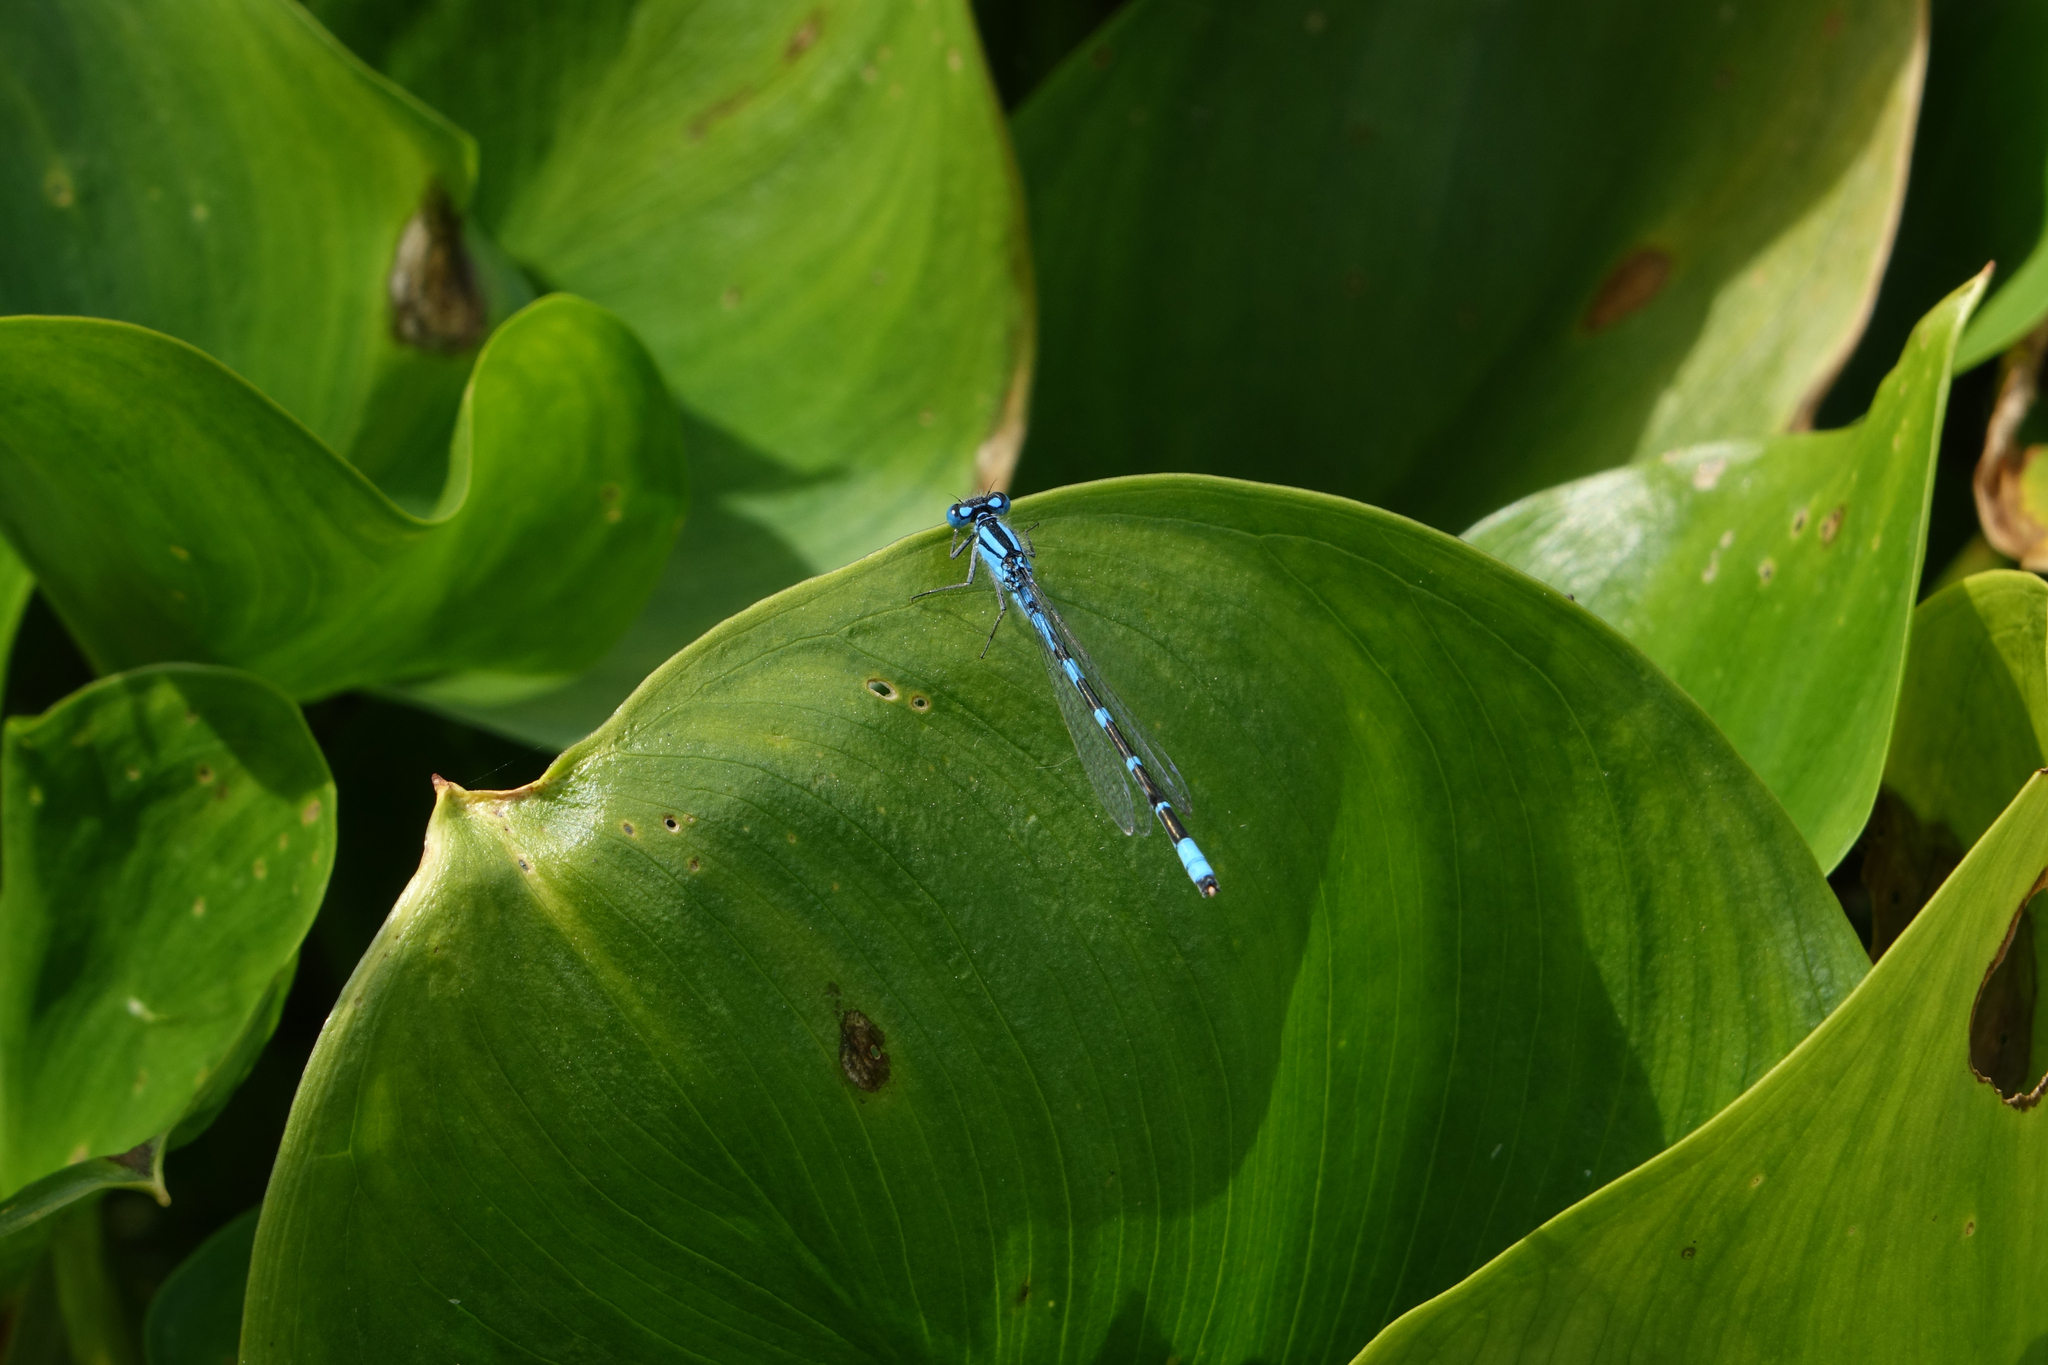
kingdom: Plantae
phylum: Tracheophyta
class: Liliopsida
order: Alismatales
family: Araceae
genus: Calla
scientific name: Calla palustris
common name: Bog arum
